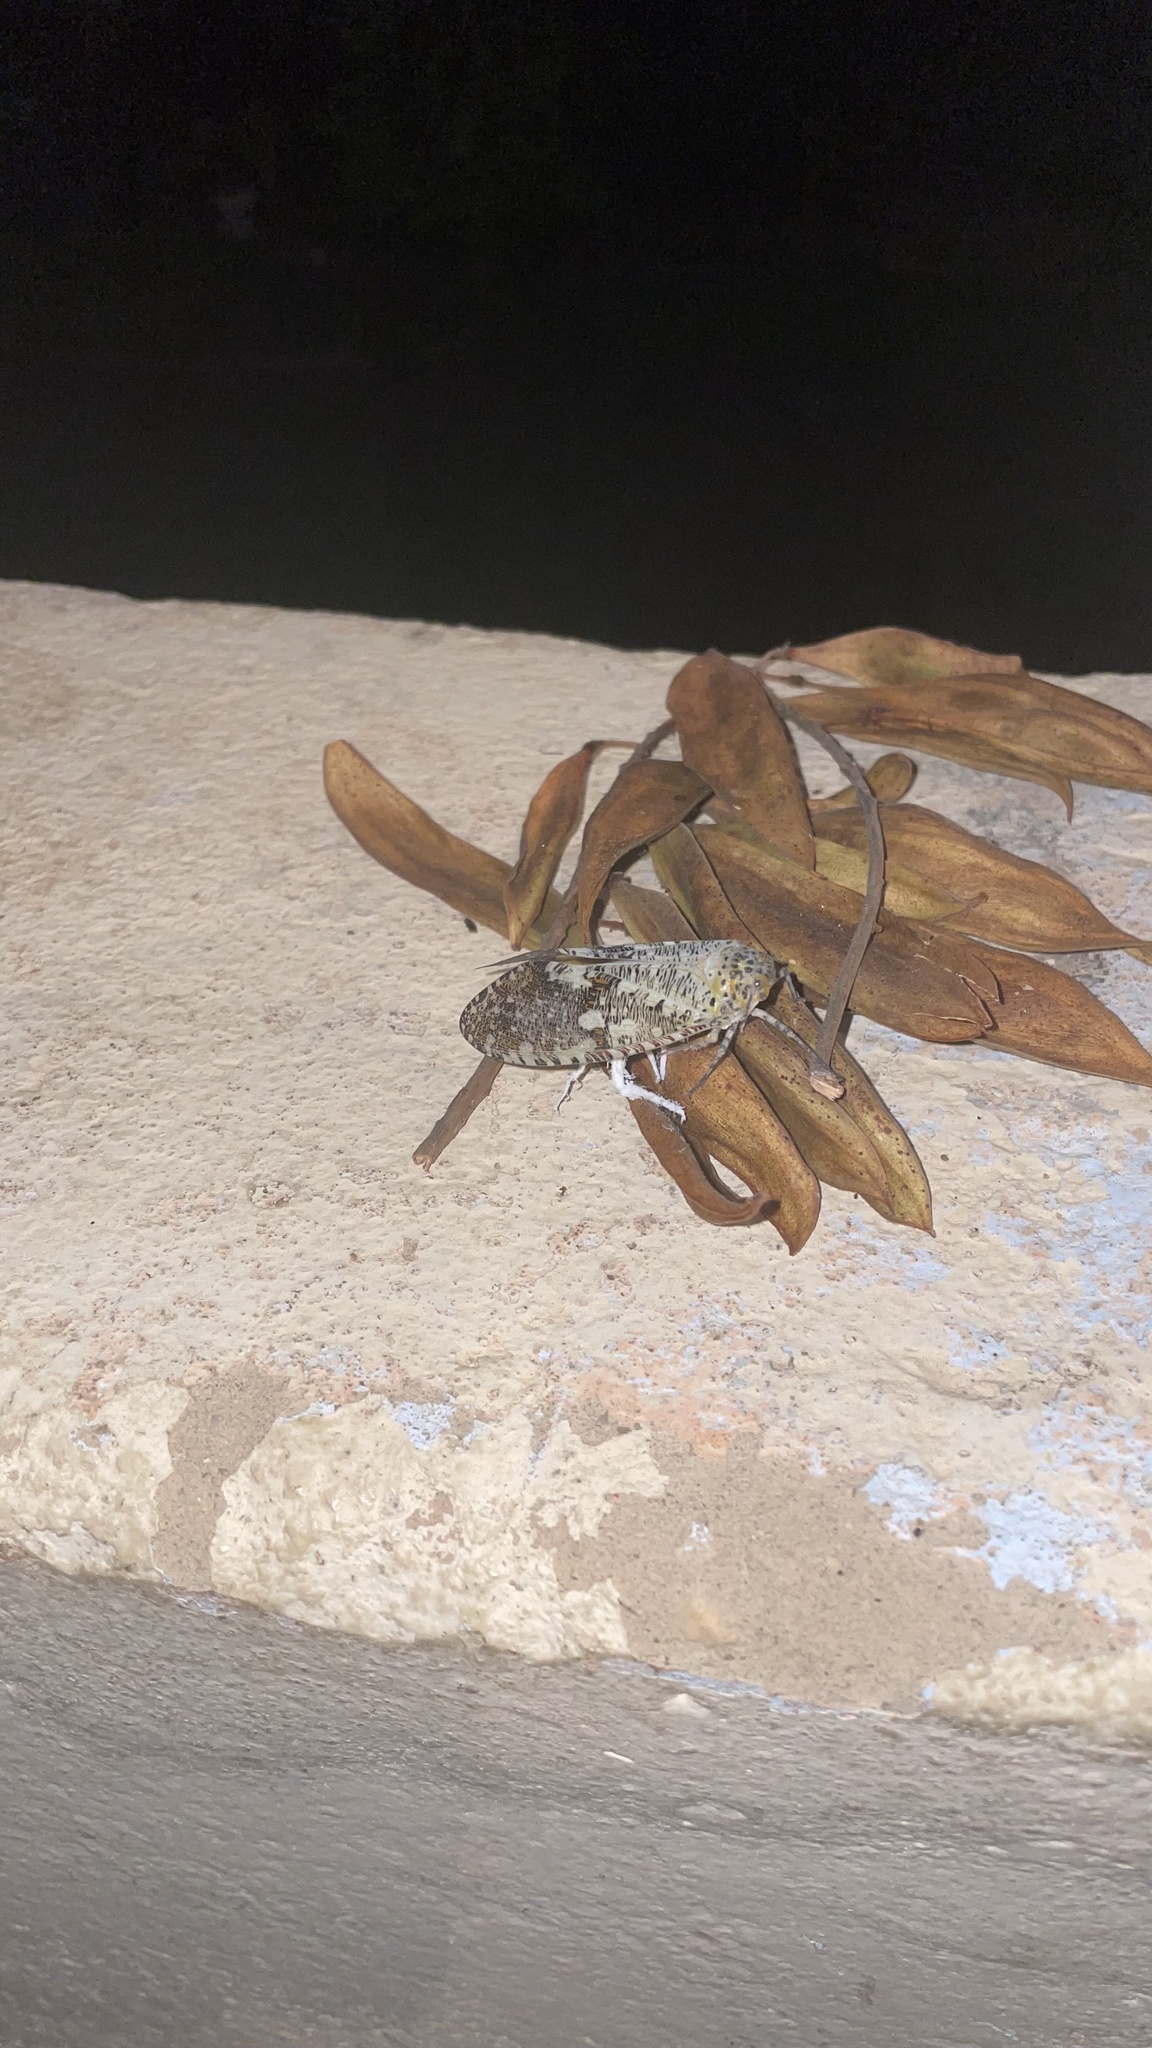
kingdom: Animalia
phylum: Arthropoda
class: Insecta
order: Hemiptera
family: Fulgoridae
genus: Phenax
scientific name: Phenax variegata
